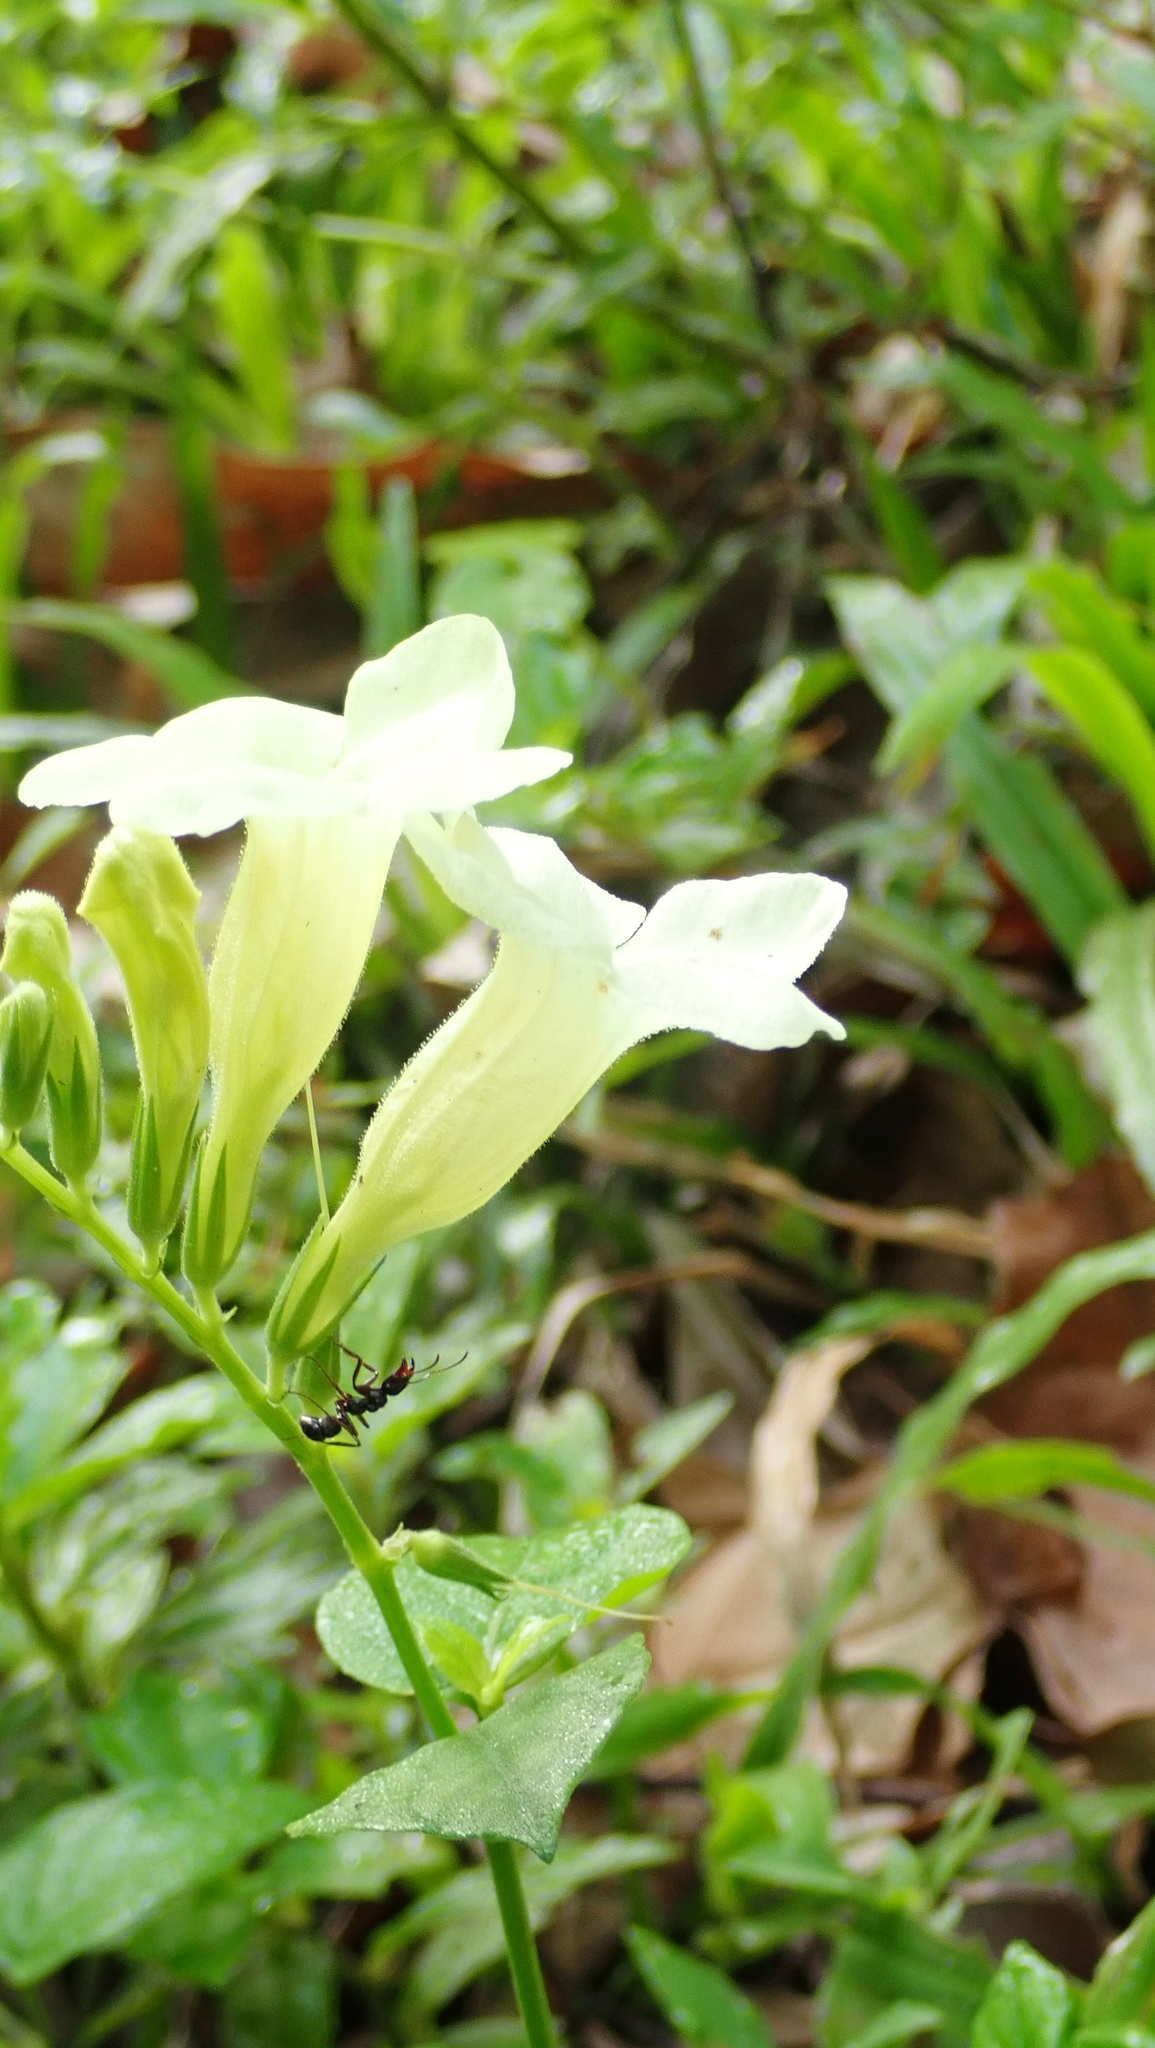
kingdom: Plantae
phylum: Tracheophyta
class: Magnoliopsida
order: Lamiales
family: Acanthaceae
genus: Asystasia
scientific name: Asystasia gangetica
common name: Chinese violet
